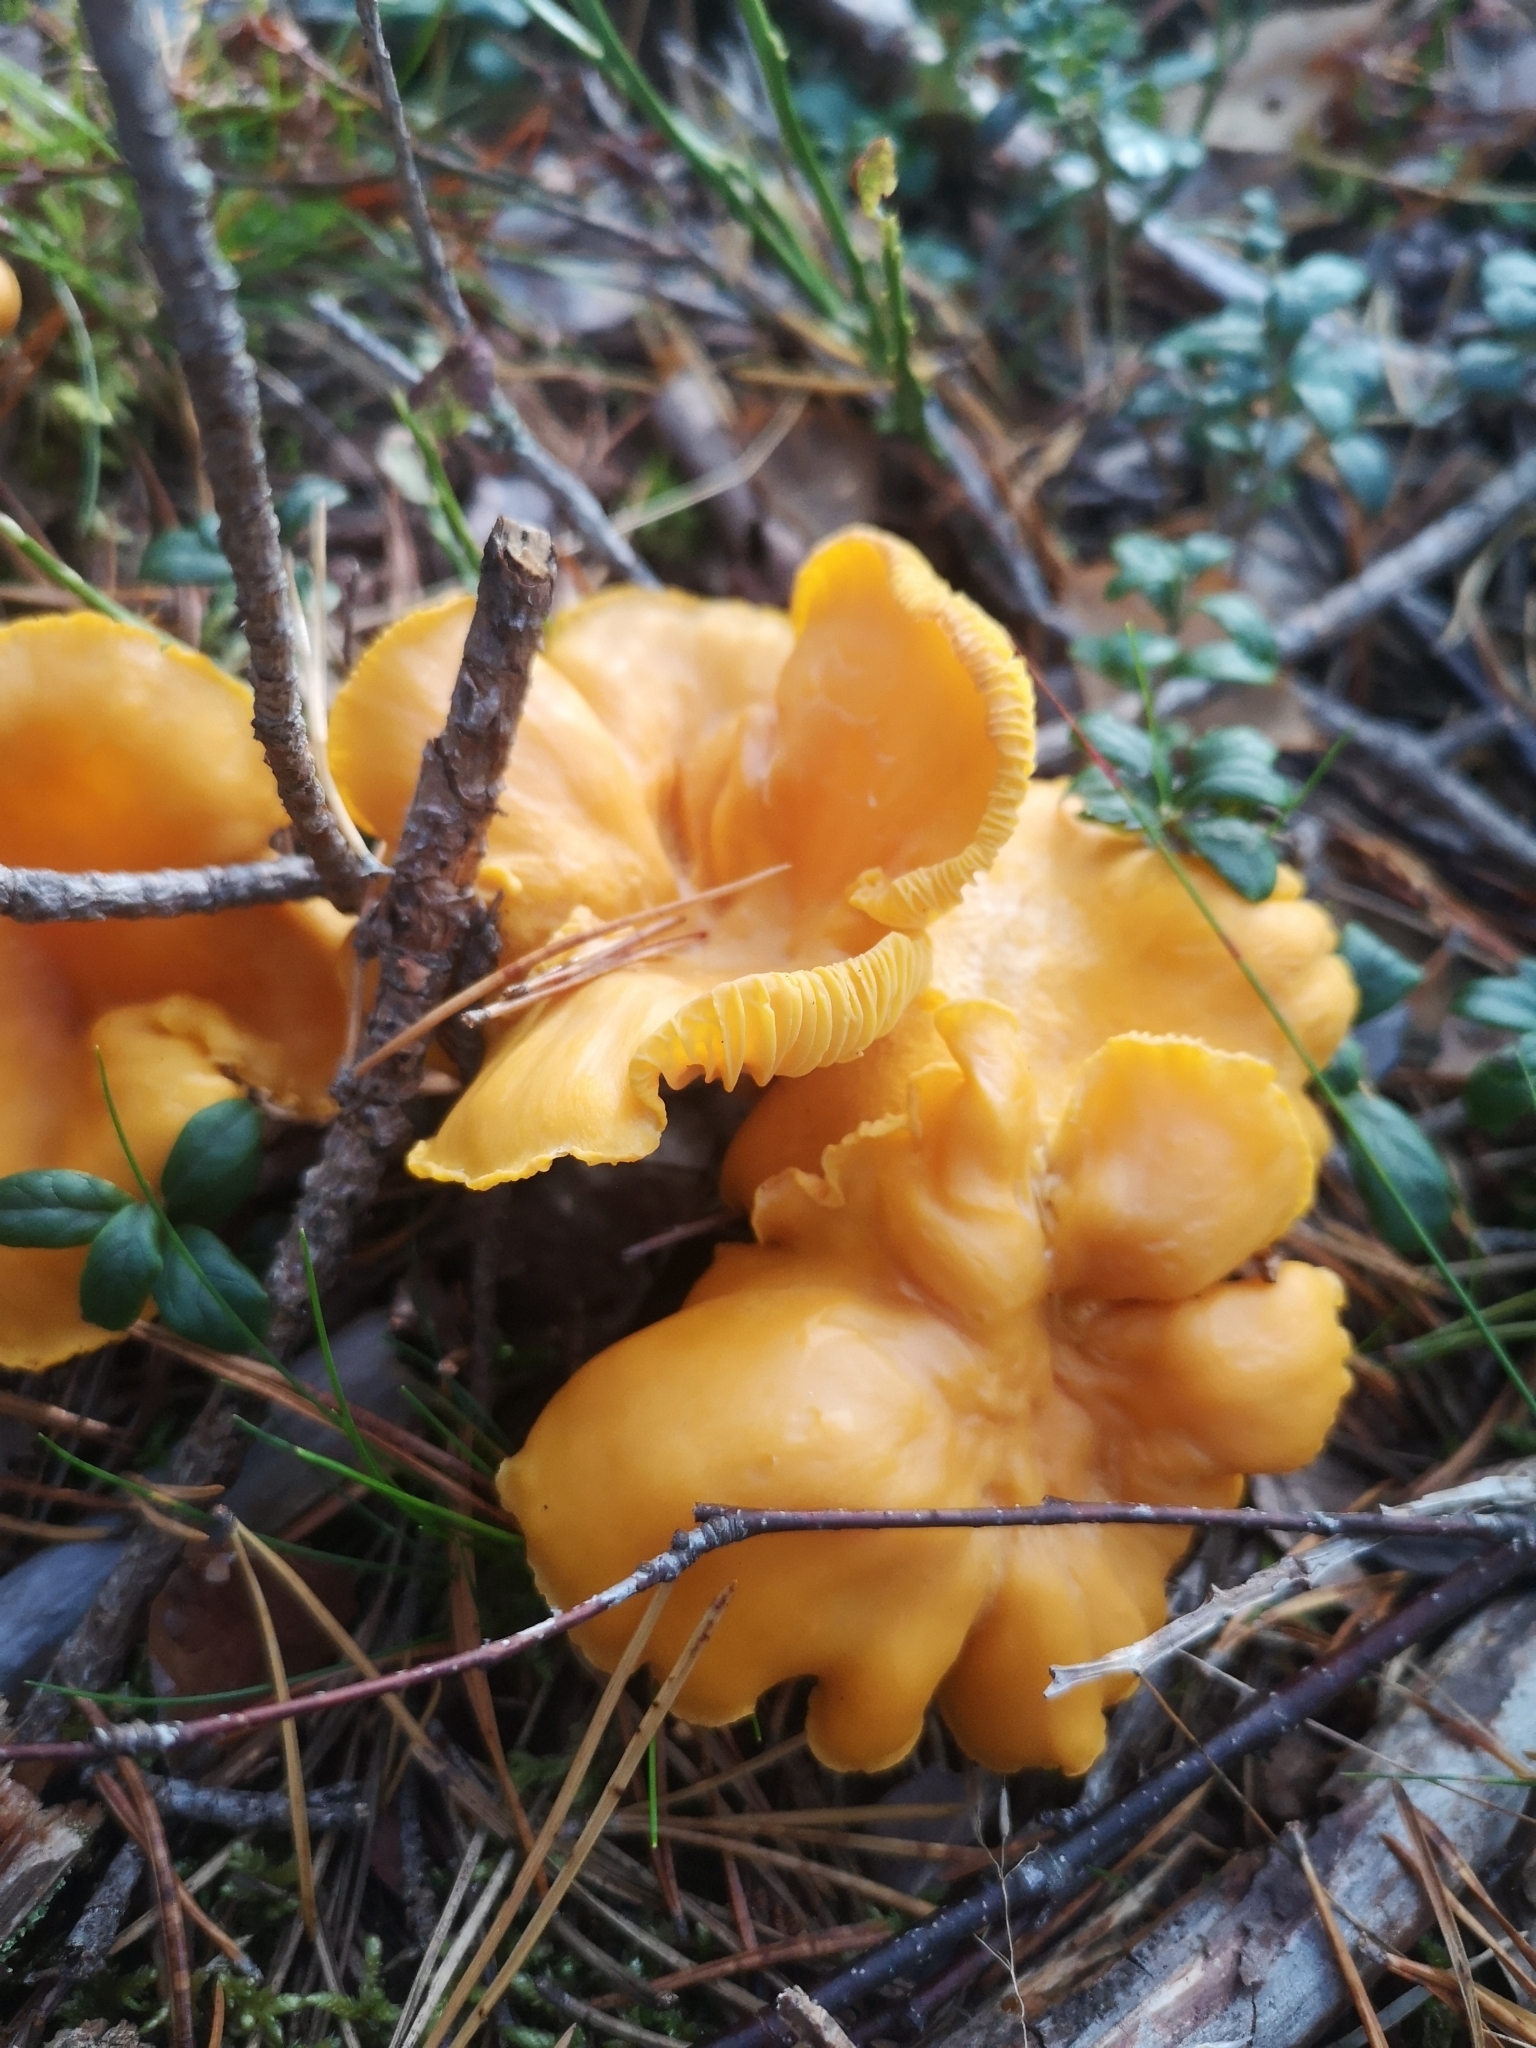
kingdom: Fungi
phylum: Basidiomycota
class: Agaricomycetes
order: Cantharellales
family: Hydnaceae
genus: Cantharellus
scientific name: Cantharellus cibarius
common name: Chanterelle
